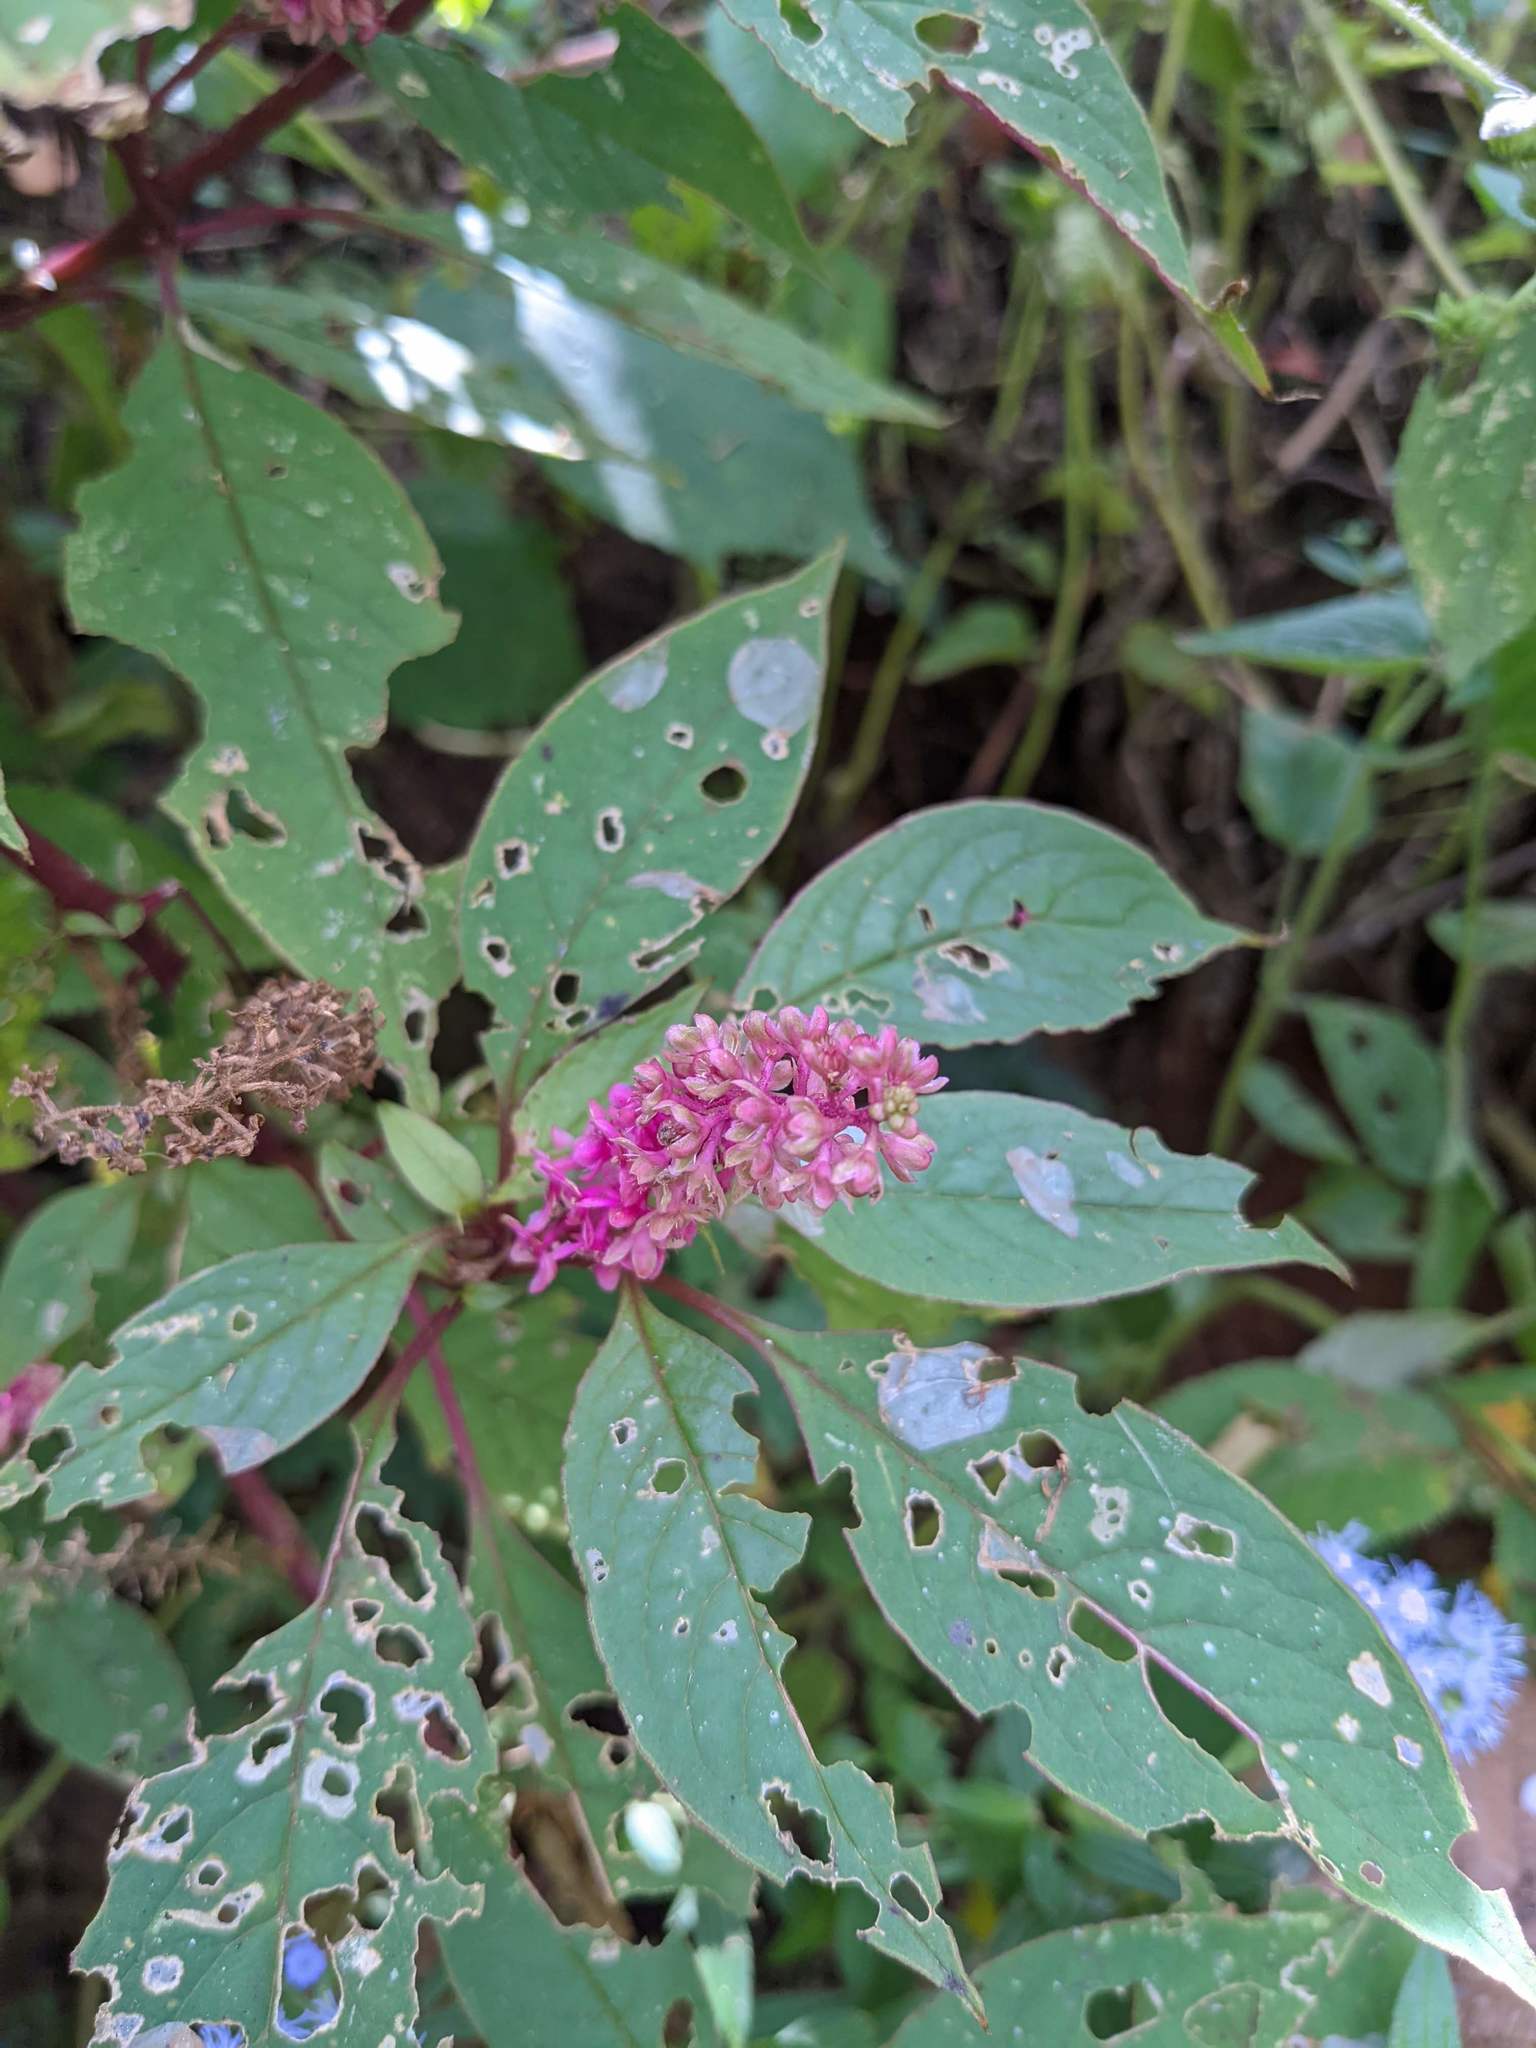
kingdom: Plantae
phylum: Tracheophyta
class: Magnoliopsida
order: Caryophyllales
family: Phytolaccaceae
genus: Phytolacca
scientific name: Phytolacca rugosa
